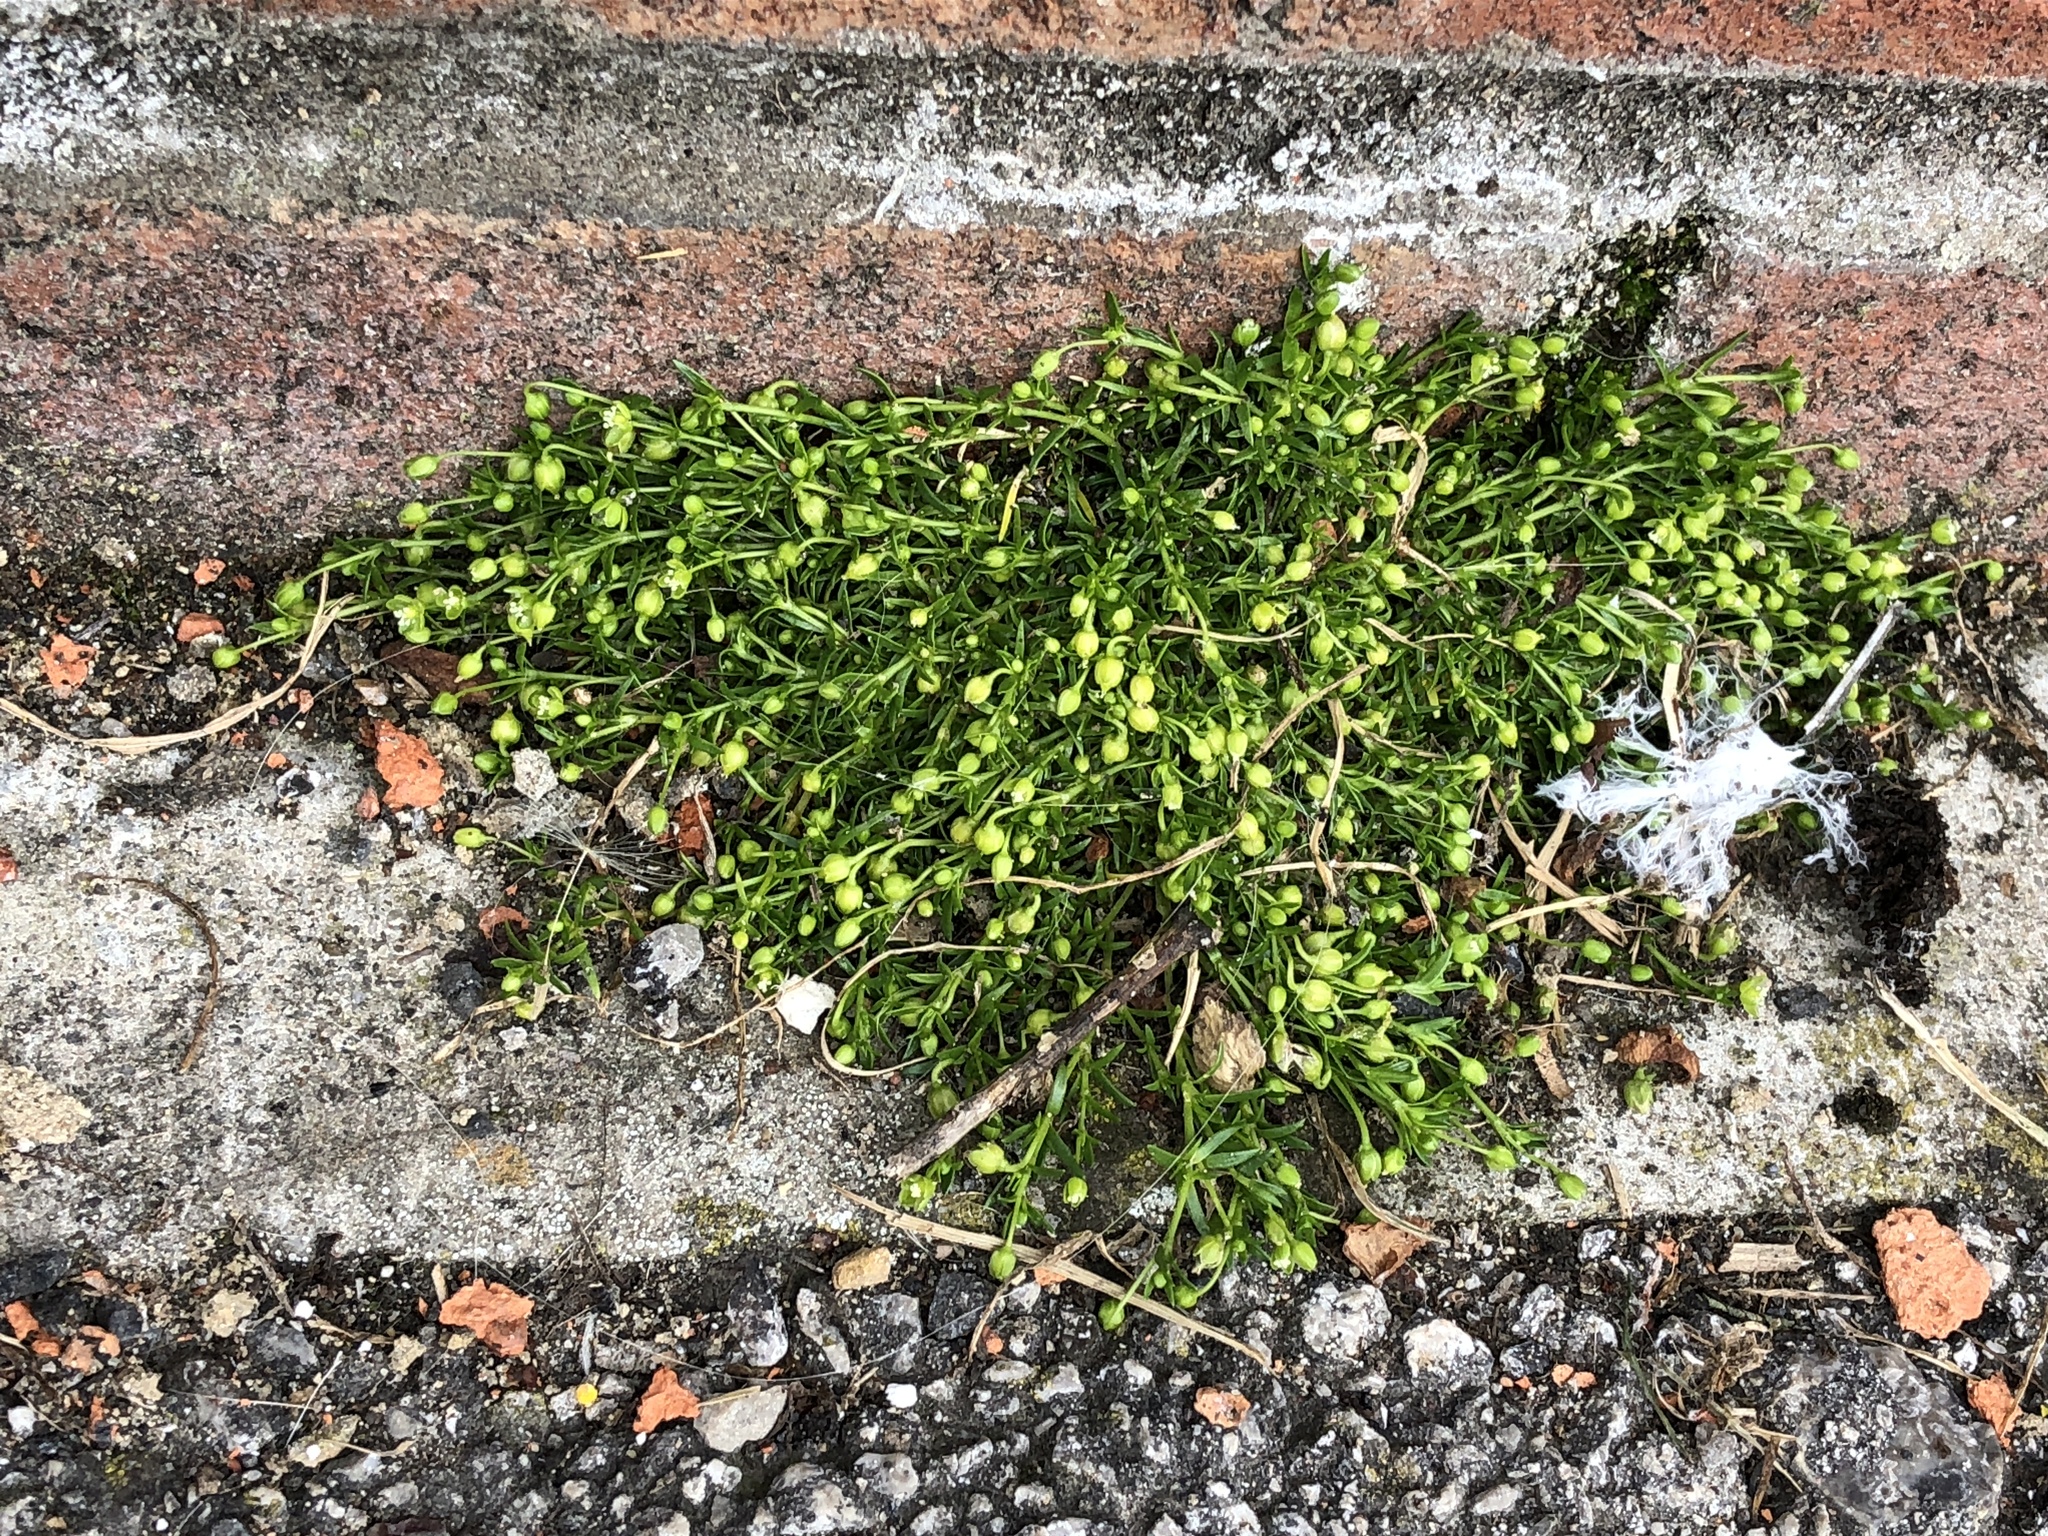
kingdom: Plantae
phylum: Tracheophyta
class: Magnoliopsida
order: Caryophyllales
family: Caryophyllaceae
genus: Sagina
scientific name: Sagina procumbens
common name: Procumbent pearlwort
